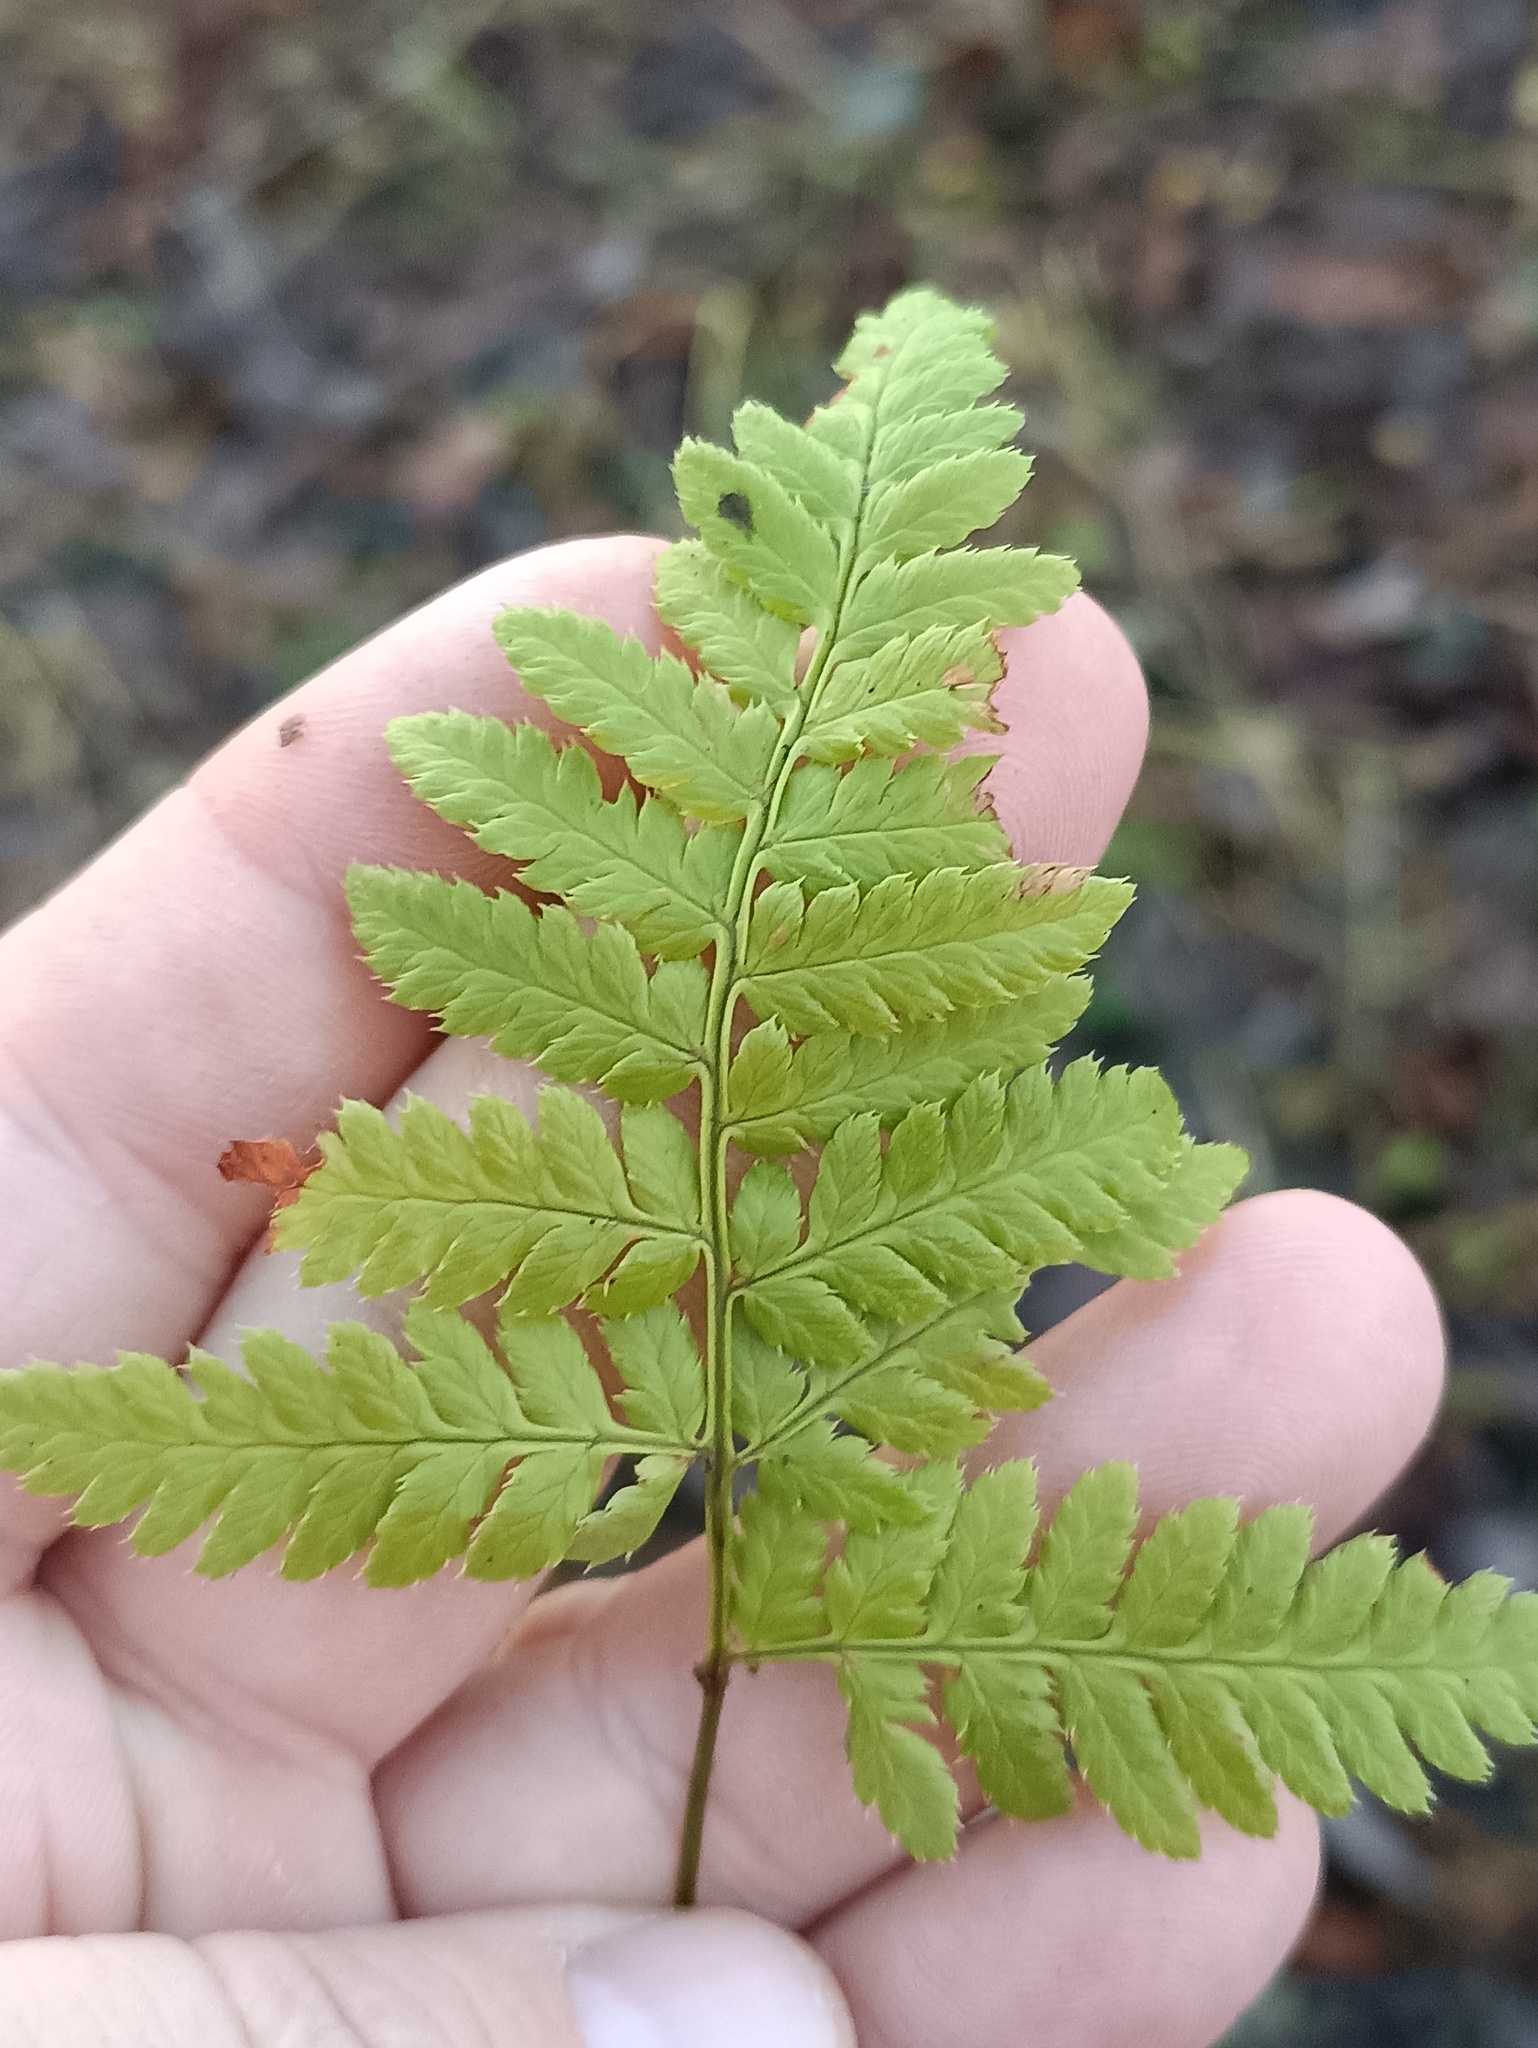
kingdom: Plantae
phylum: Tracheophyta
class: Polypodiopsida
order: Polypodiales
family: Dryopteridaceae
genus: Dryopteris
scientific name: Dryopteris carthusiana
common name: Narrow buckler-fern
